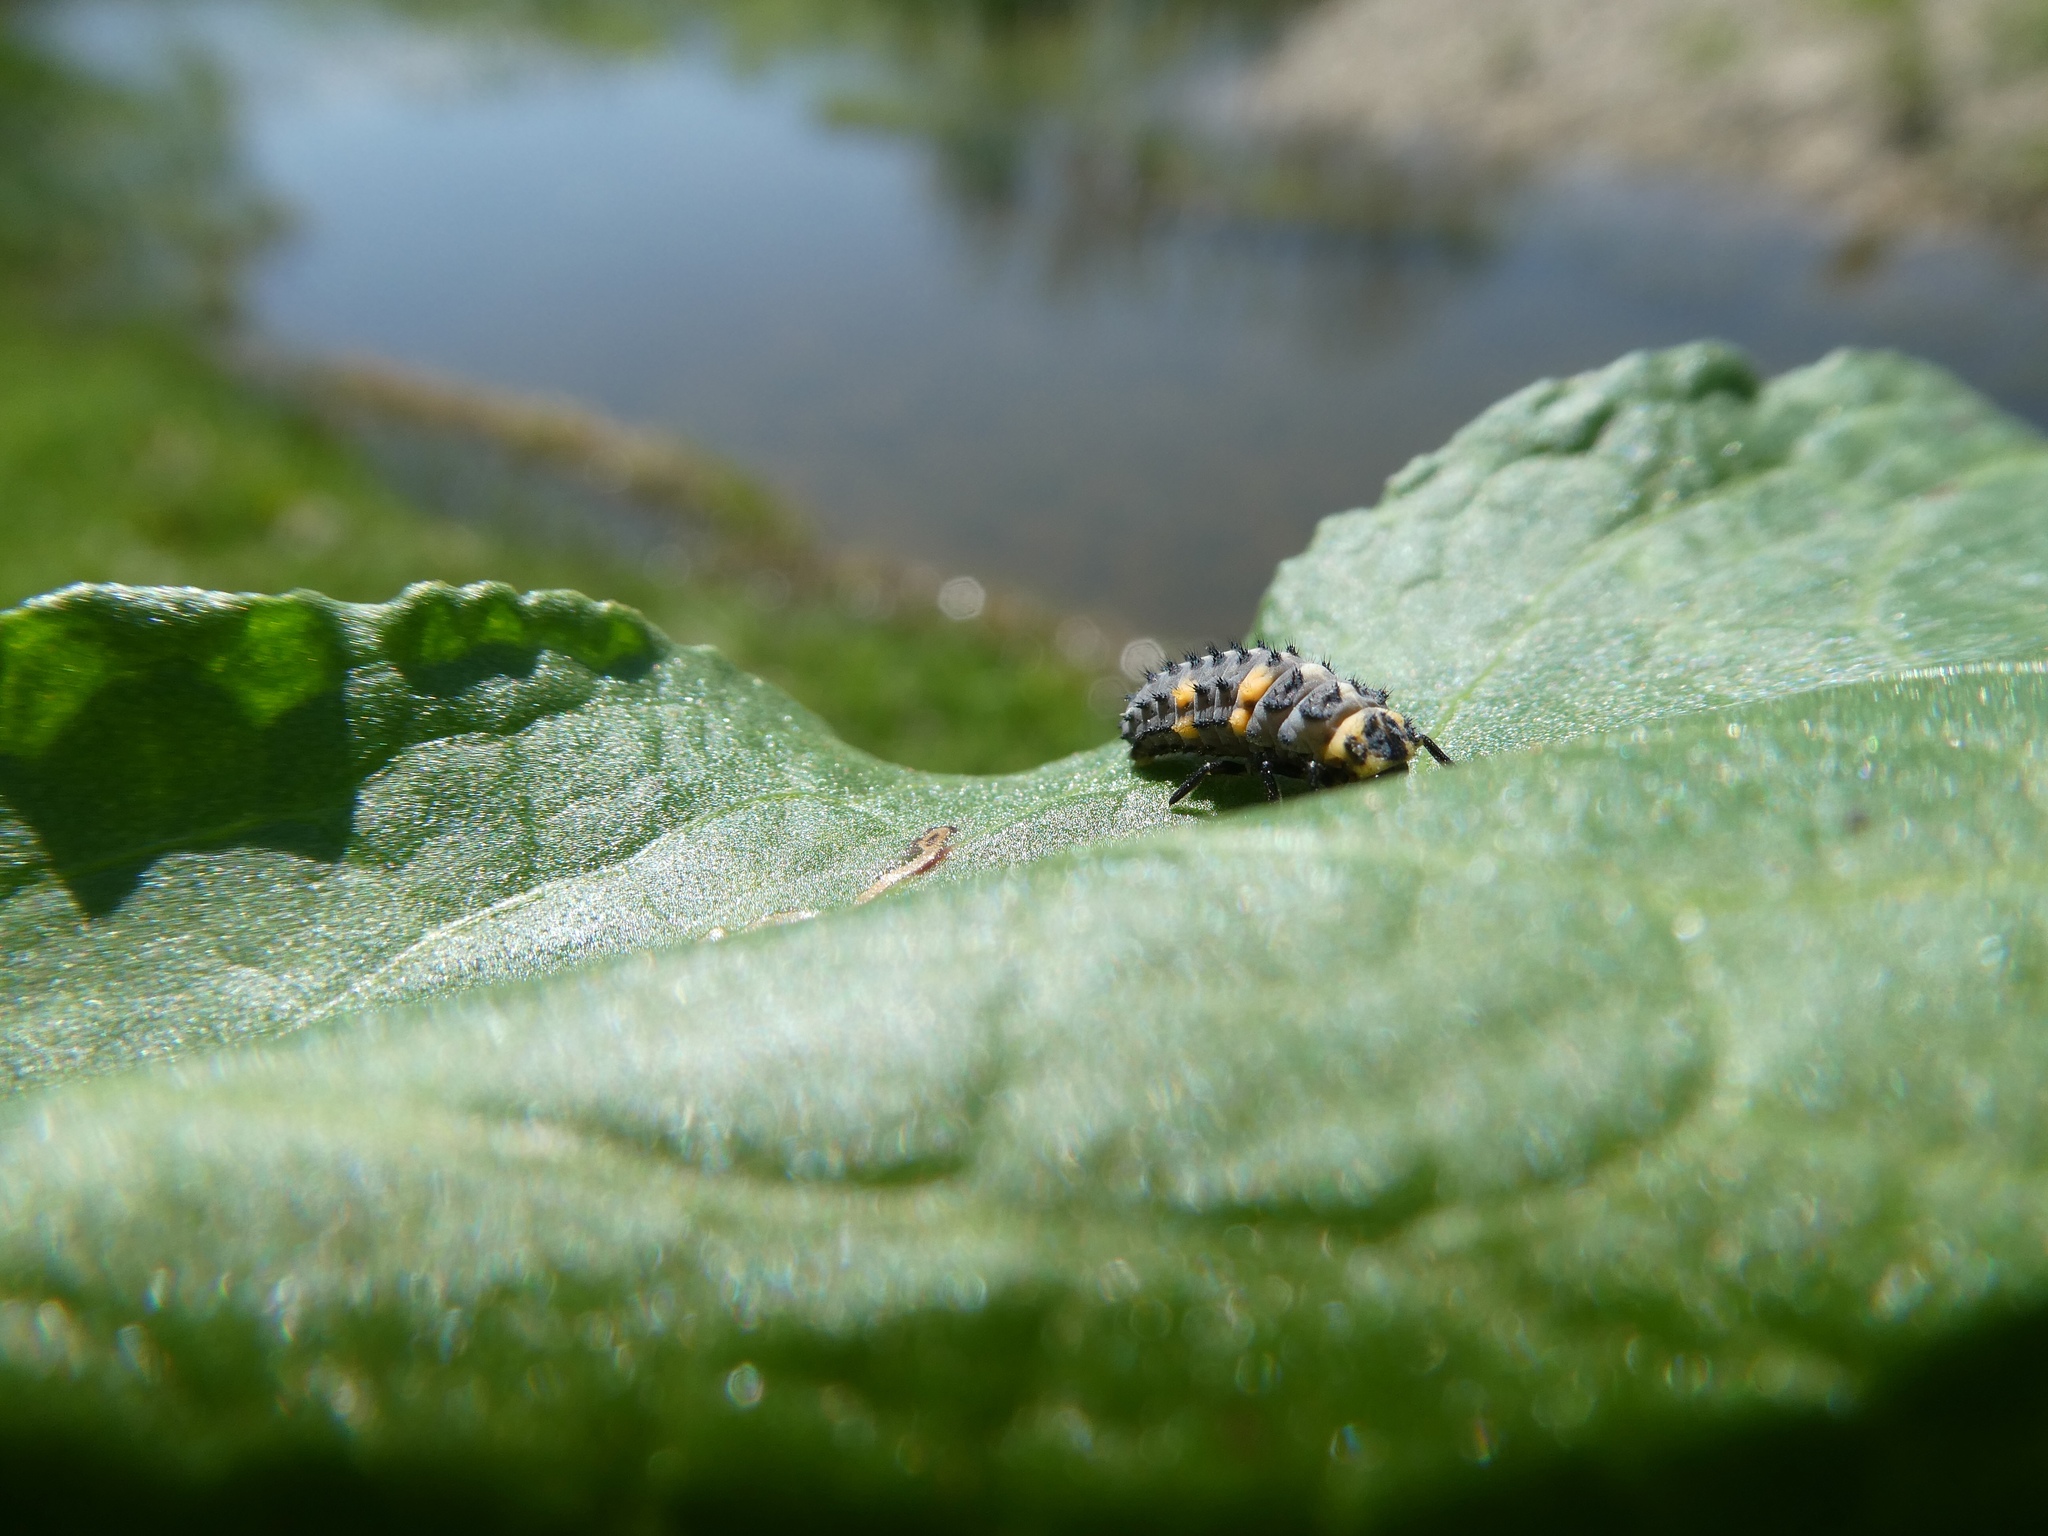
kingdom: Animalia
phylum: Arthropoda
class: Insecta
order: Coleoptera
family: Coccinellidae
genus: Coccinella
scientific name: Coccinella septempunctata
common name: Sevenspotted lady beetle
